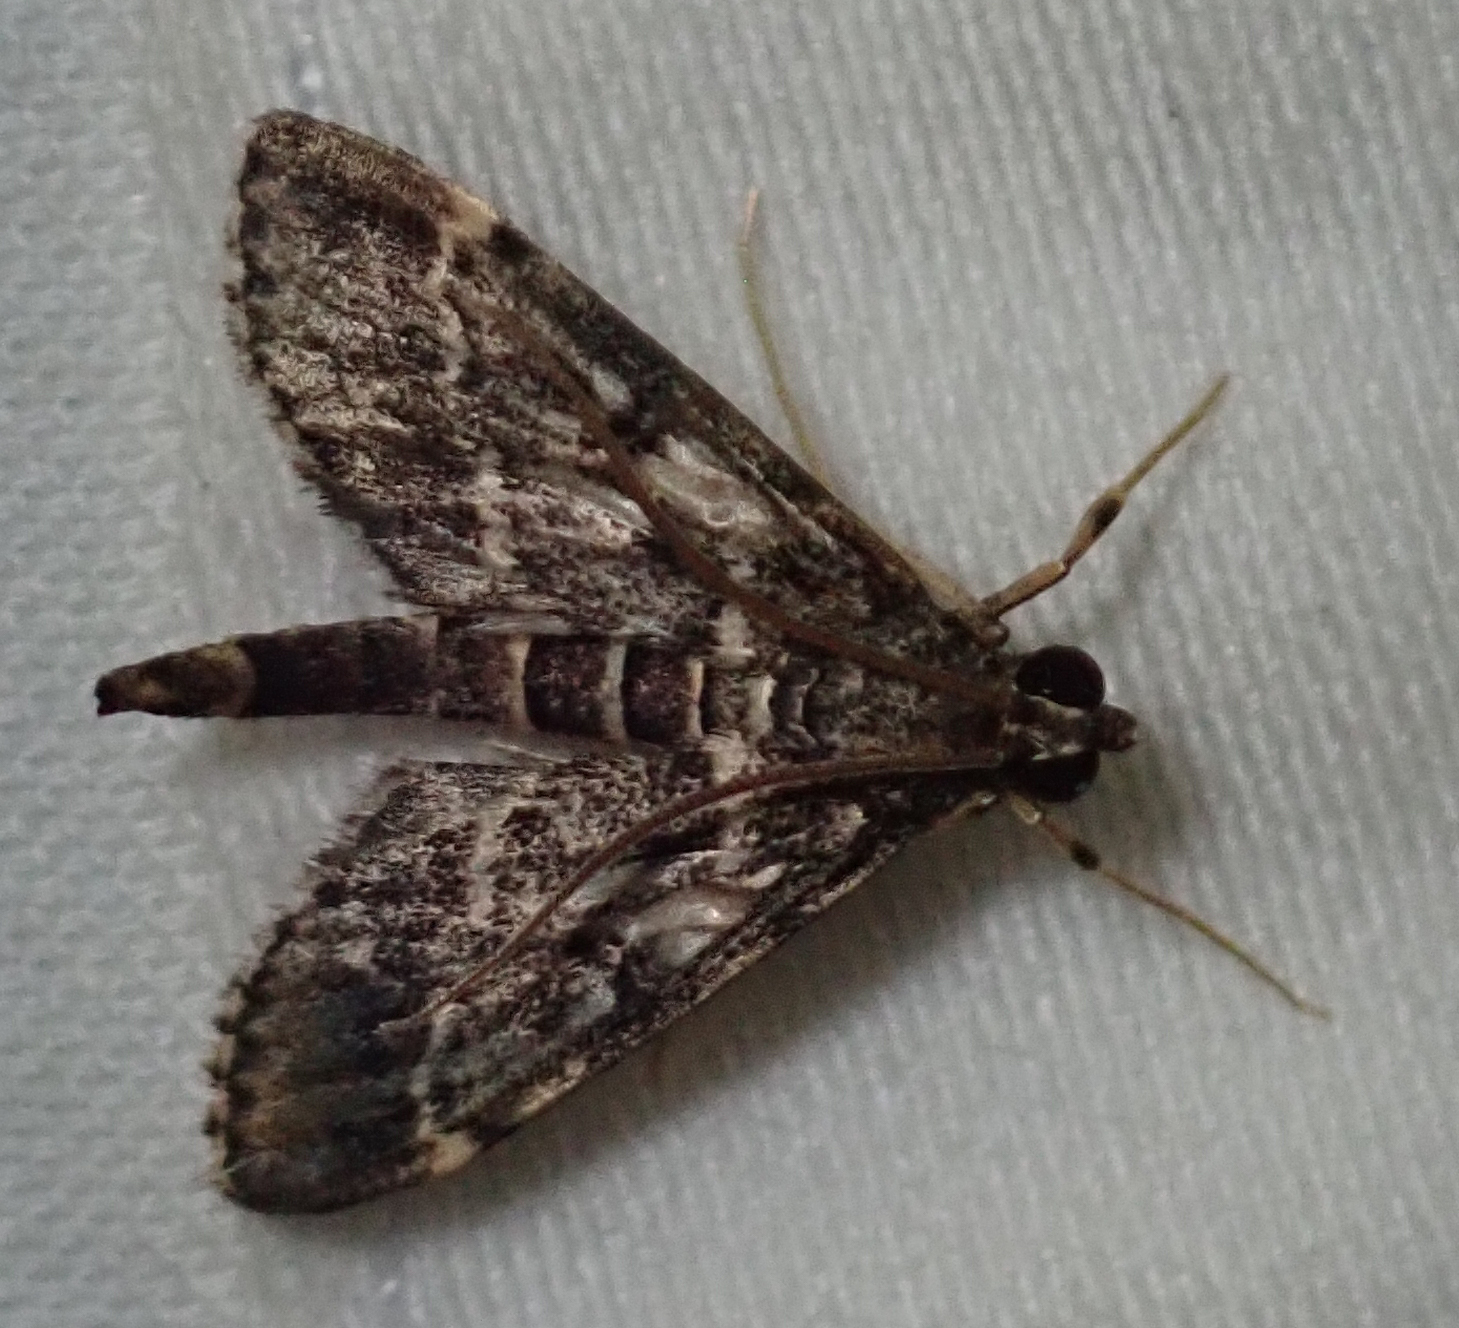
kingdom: Animalia
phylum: Arthropoda
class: Insecta
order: Lepidoptera
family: Crambidae
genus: Duponchelia
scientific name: Duponchelia fovealis
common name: Crambid moth
